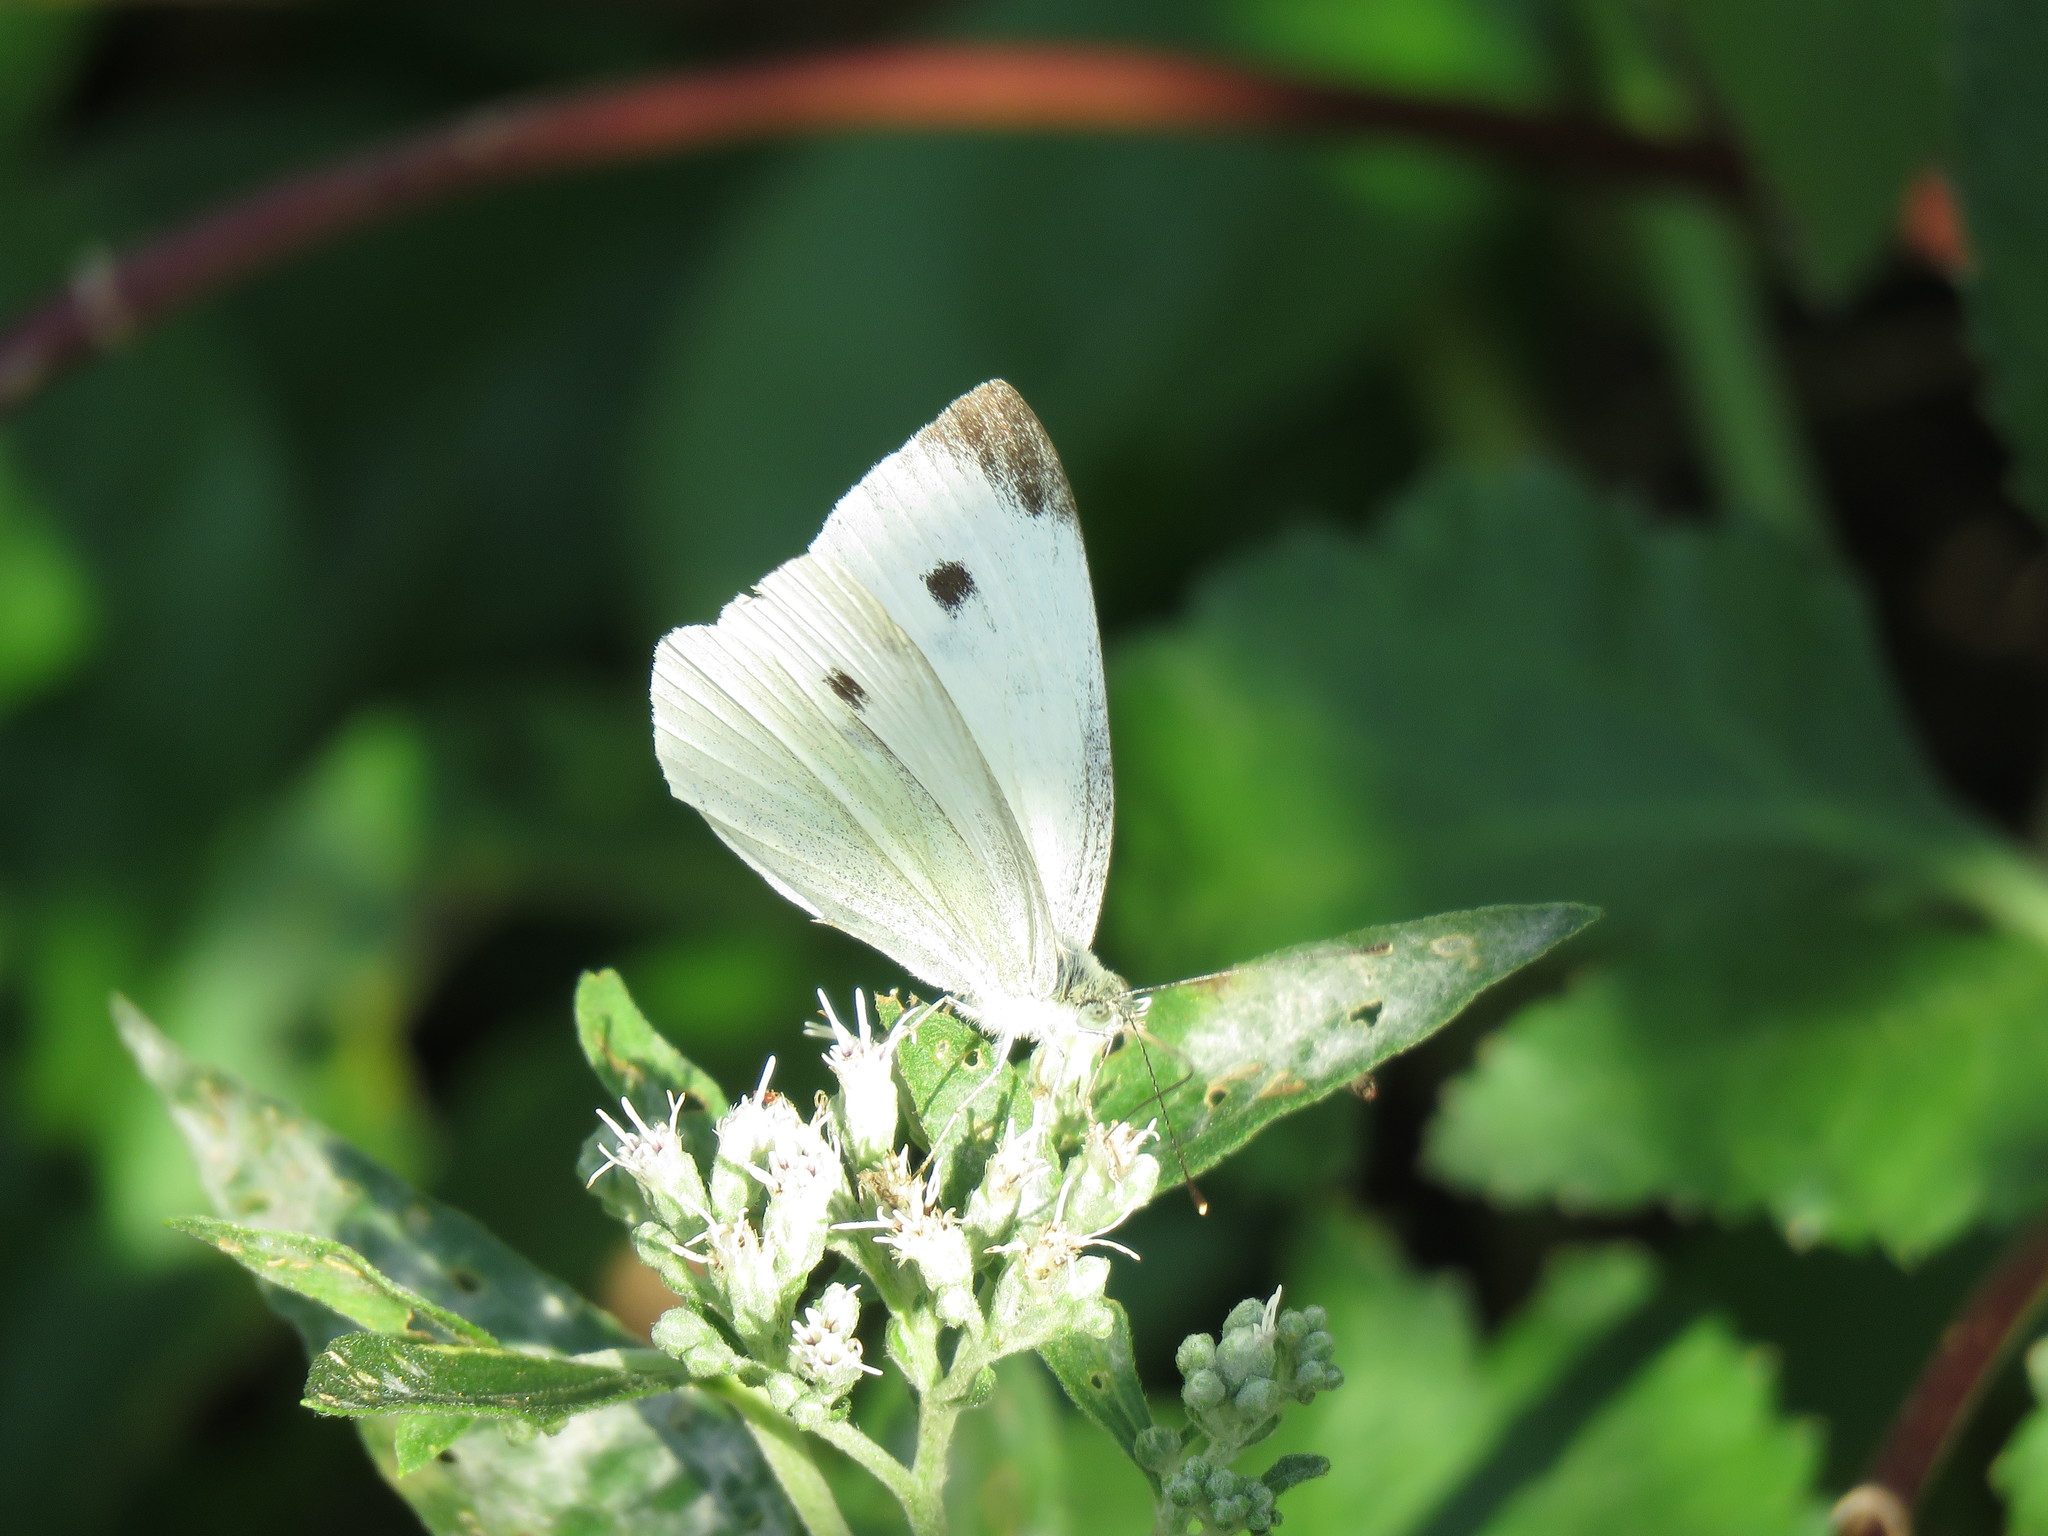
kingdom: Animalia
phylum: Arthropoda
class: Insecta
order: Lepidoptera
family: Pieridae
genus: Pieris
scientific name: Pieris rapae
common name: Small white
